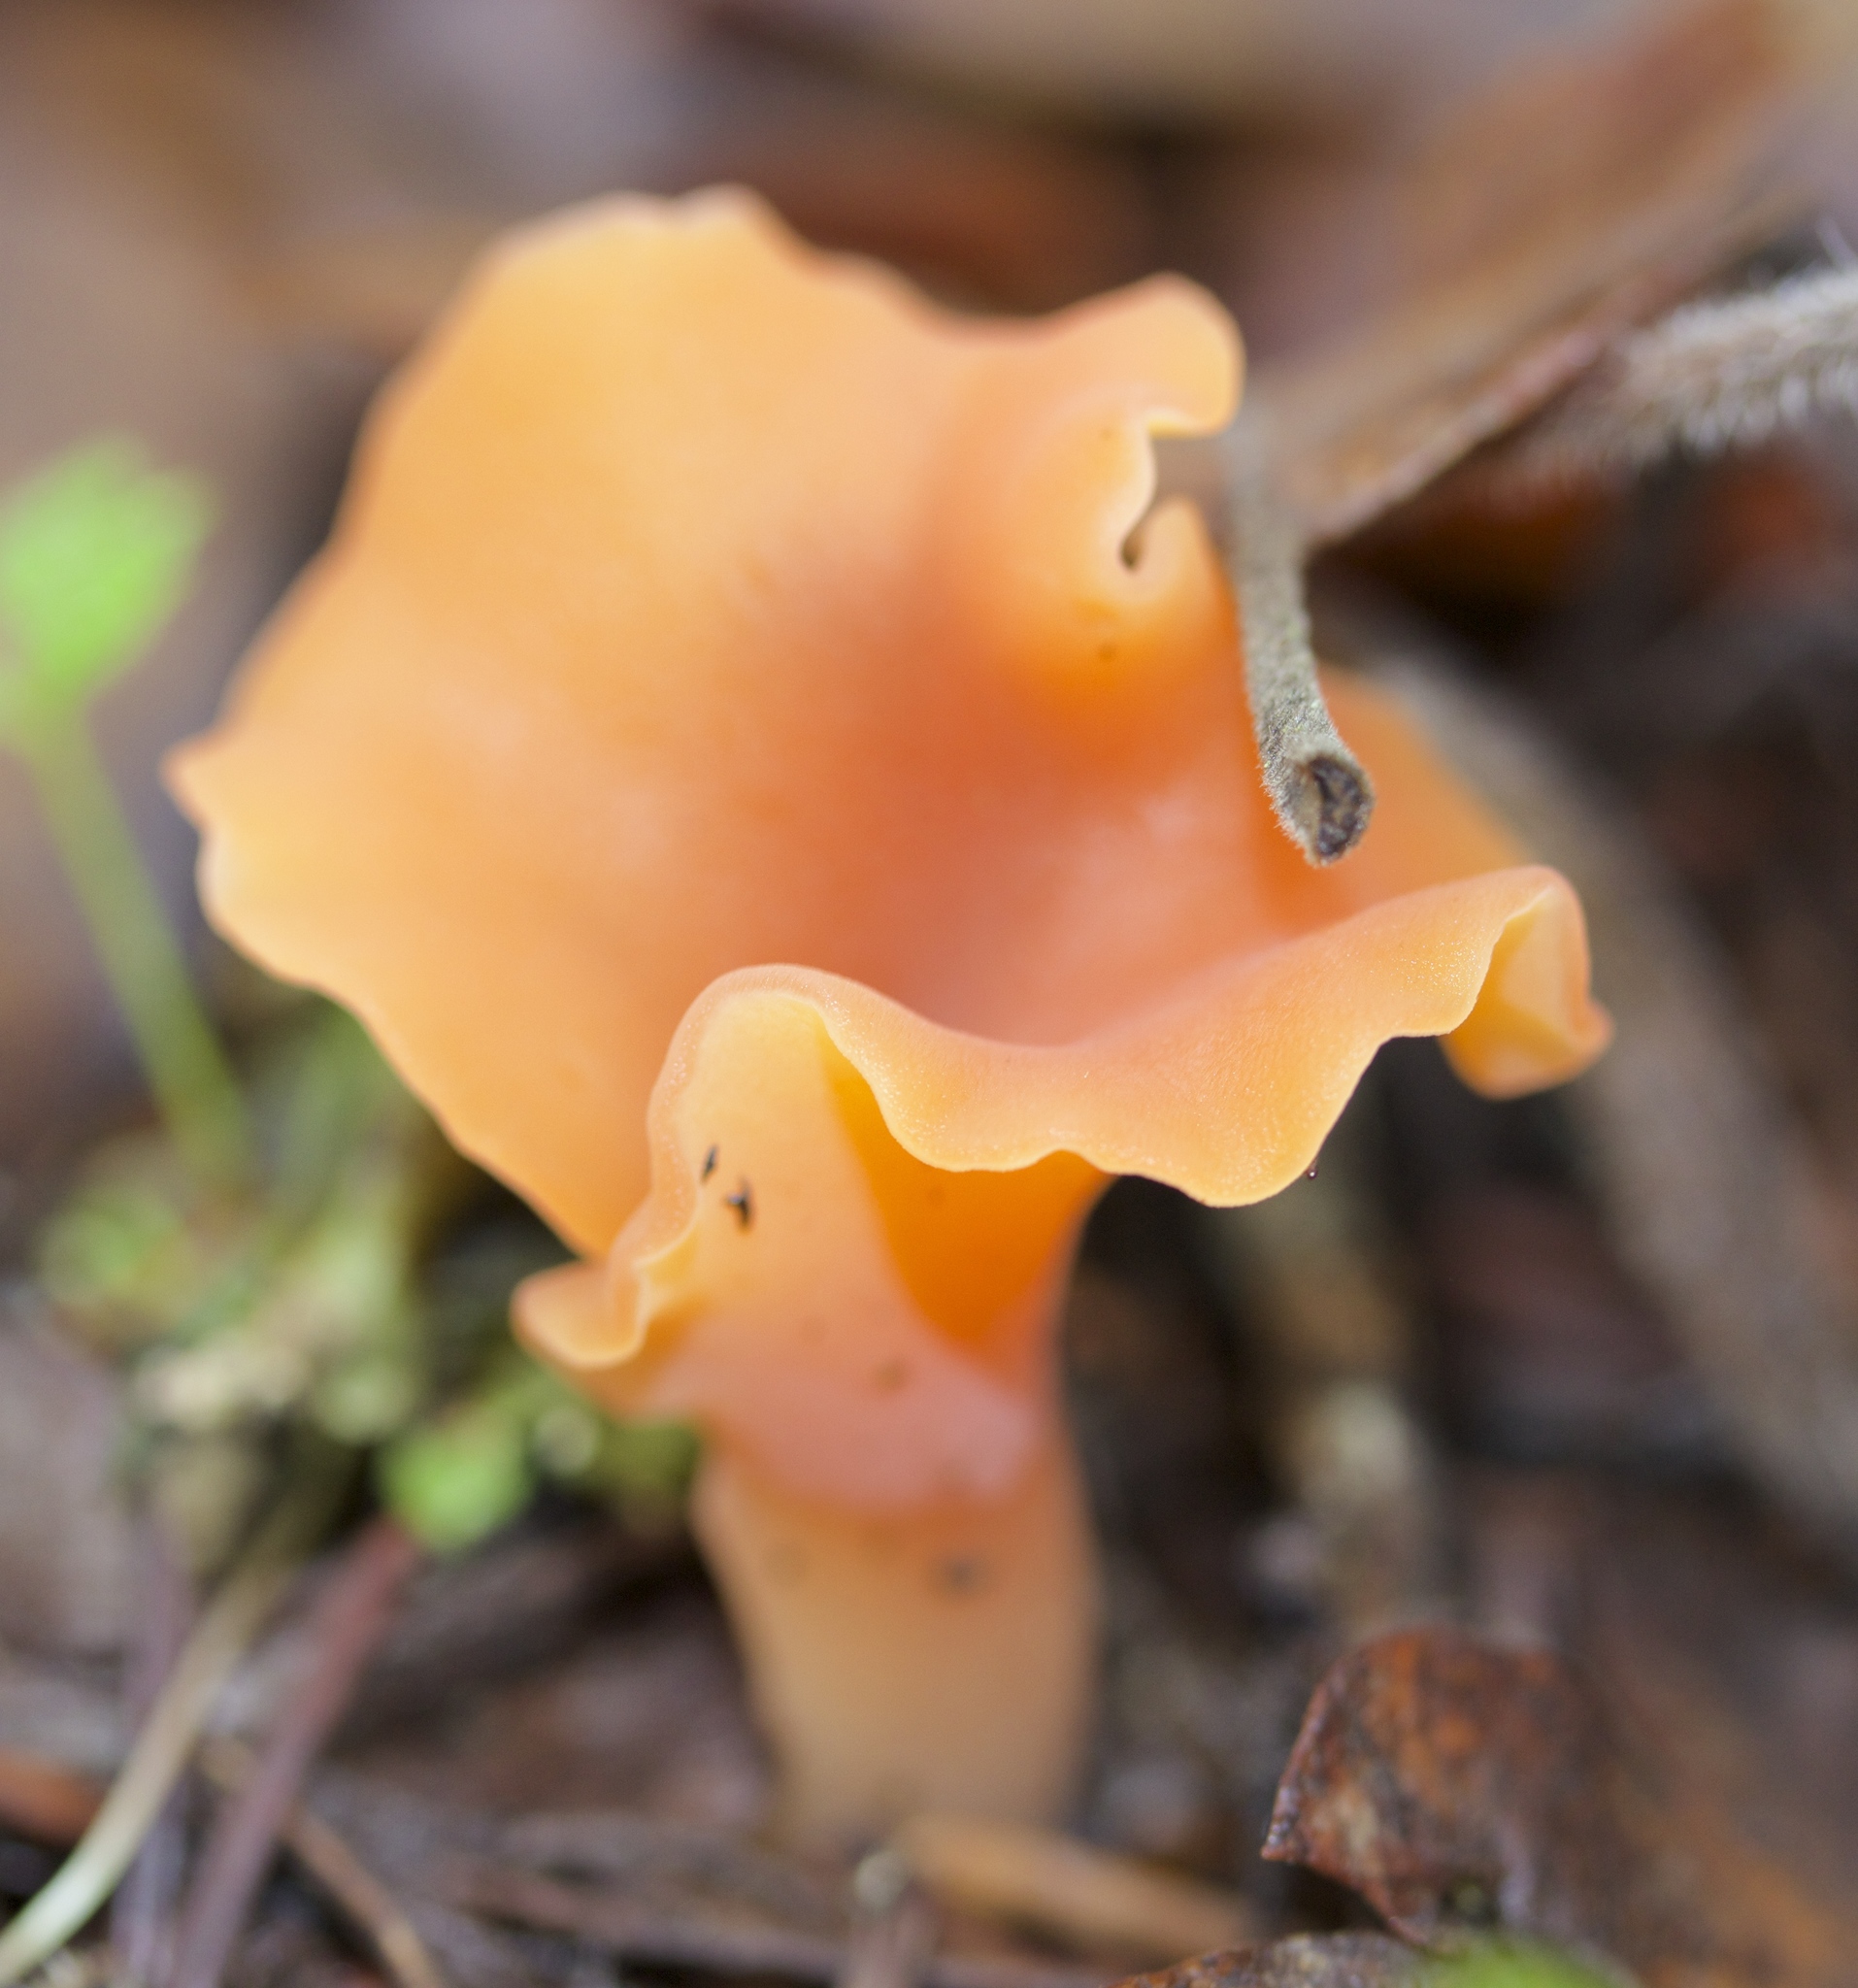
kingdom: Fungi
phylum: Basidiomycota
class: Agaricomycetes
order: Auriculariales
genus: Guepinia
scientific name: Guepinia helvelloides
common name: Salmon salad
